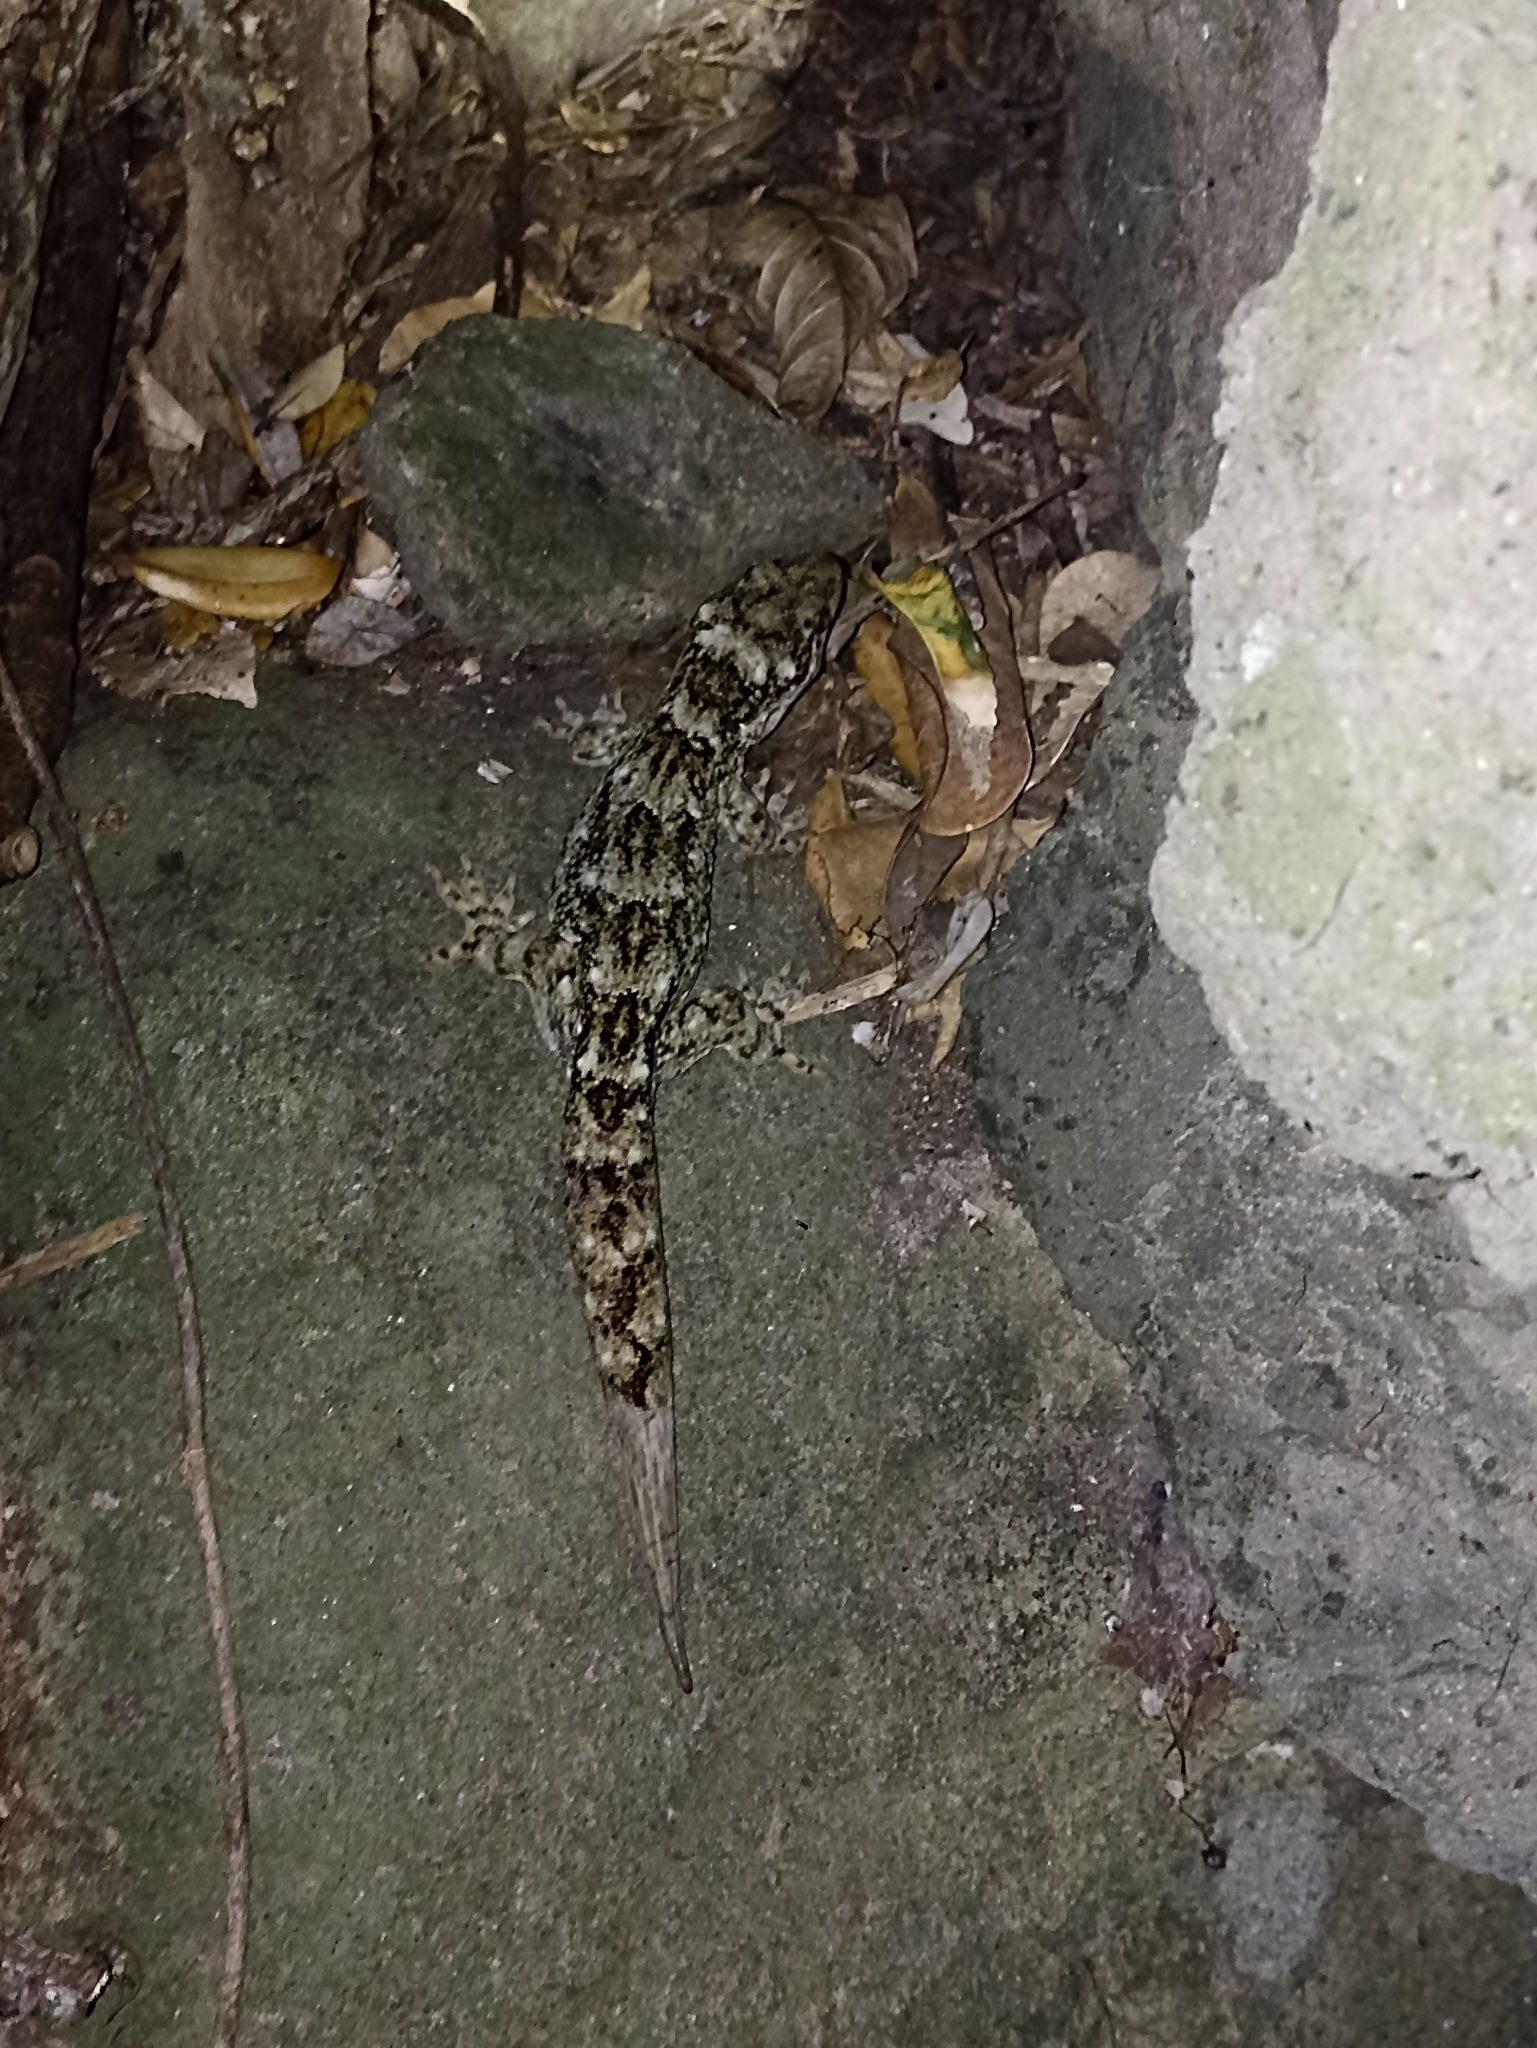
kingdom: Animalia
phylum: Chordata
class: Squamata
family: Diplodactylidae
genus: Hoplodactylus
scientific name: Hoplodactylus duvaucelii
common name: Duvaucel's gecko
